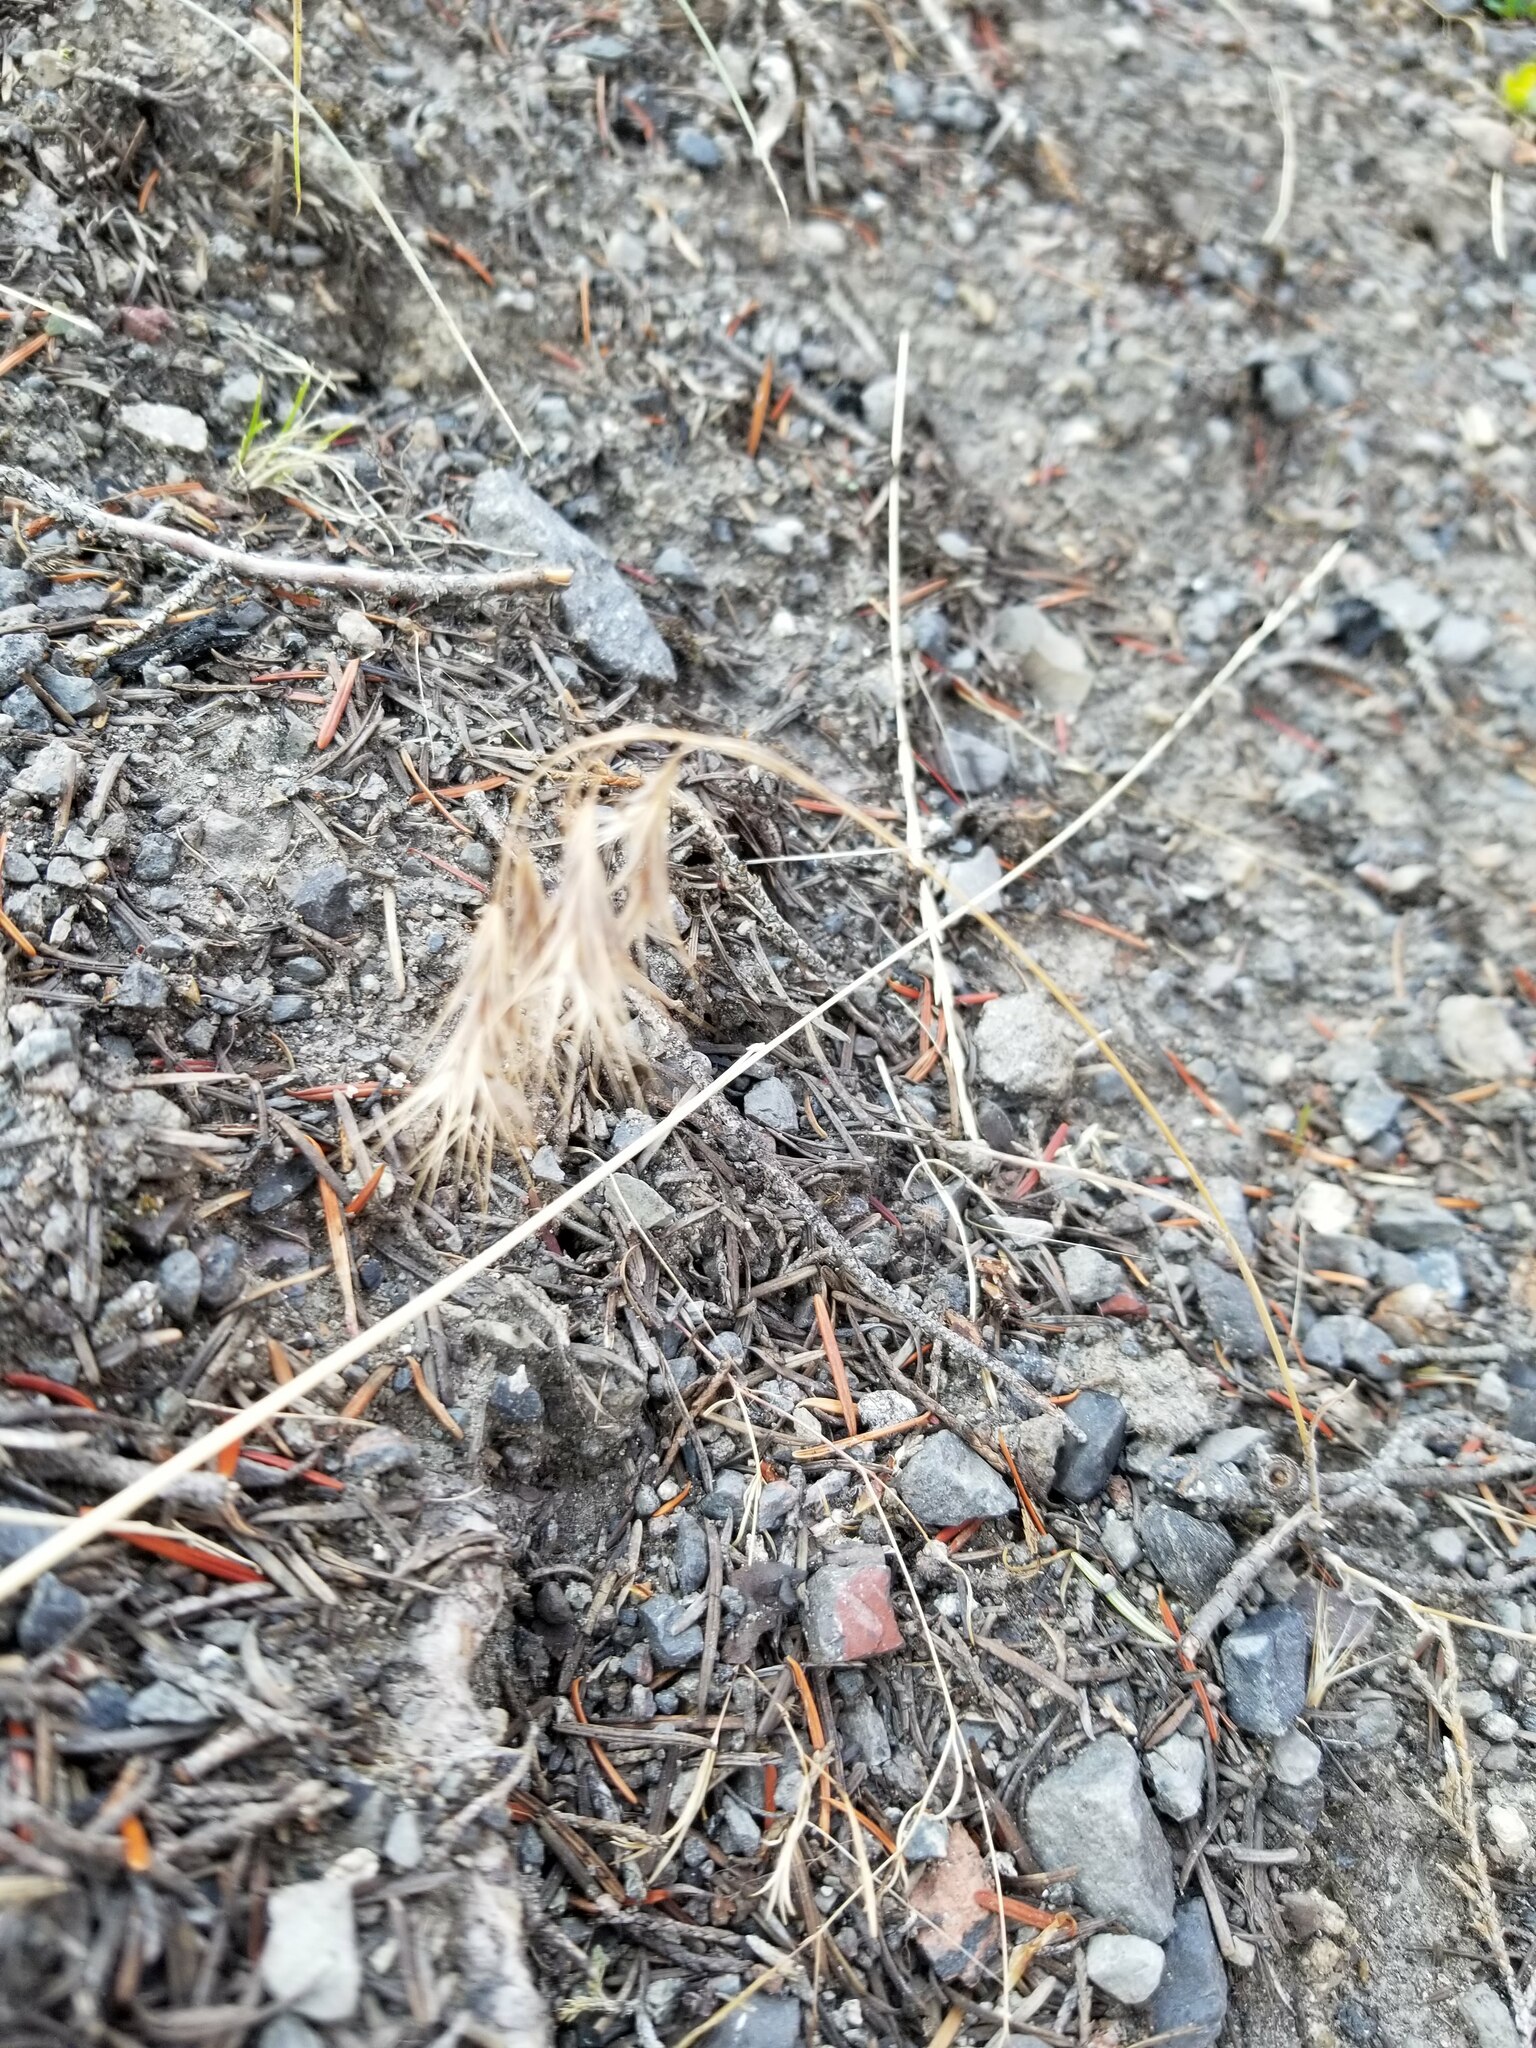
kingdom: Plantae
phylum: Tracheophyta
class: Liliopsida
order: Poales
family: Poaceae
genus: Bromus
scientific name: Bromus tectorum
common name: Cheatgrass
